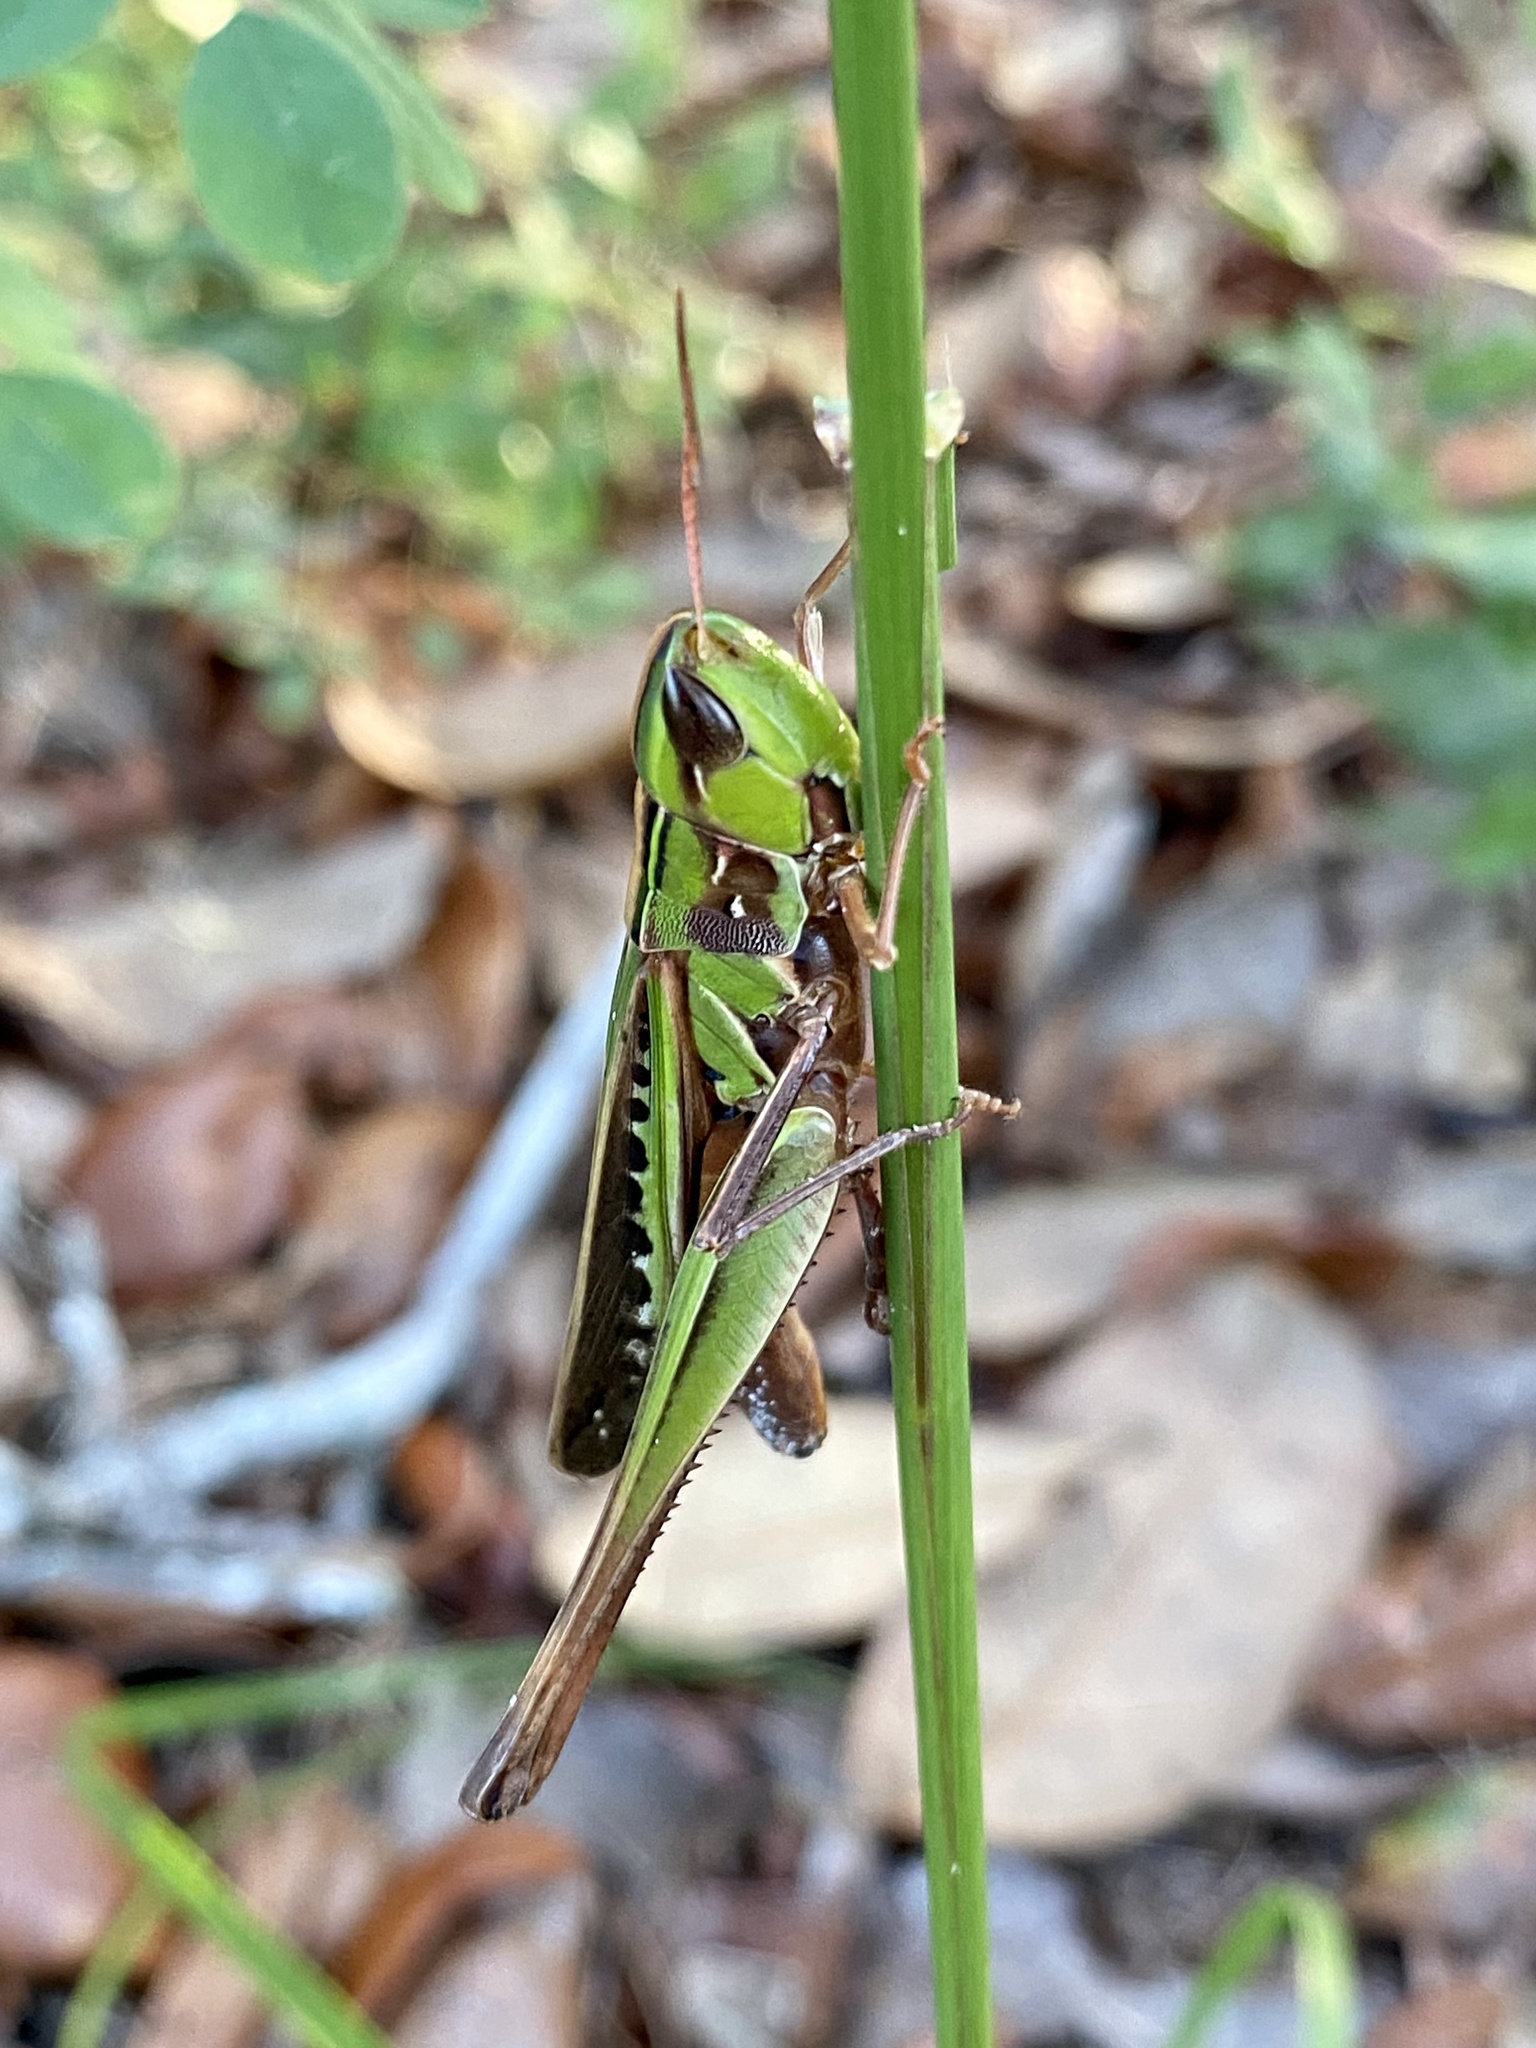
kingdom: Animalia
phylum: Arthropoda
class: Insecta
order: Orthoptera
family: Acrididae
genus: Syrbula
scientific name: Syrbula admirabilis
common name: Handsome grasshopper
